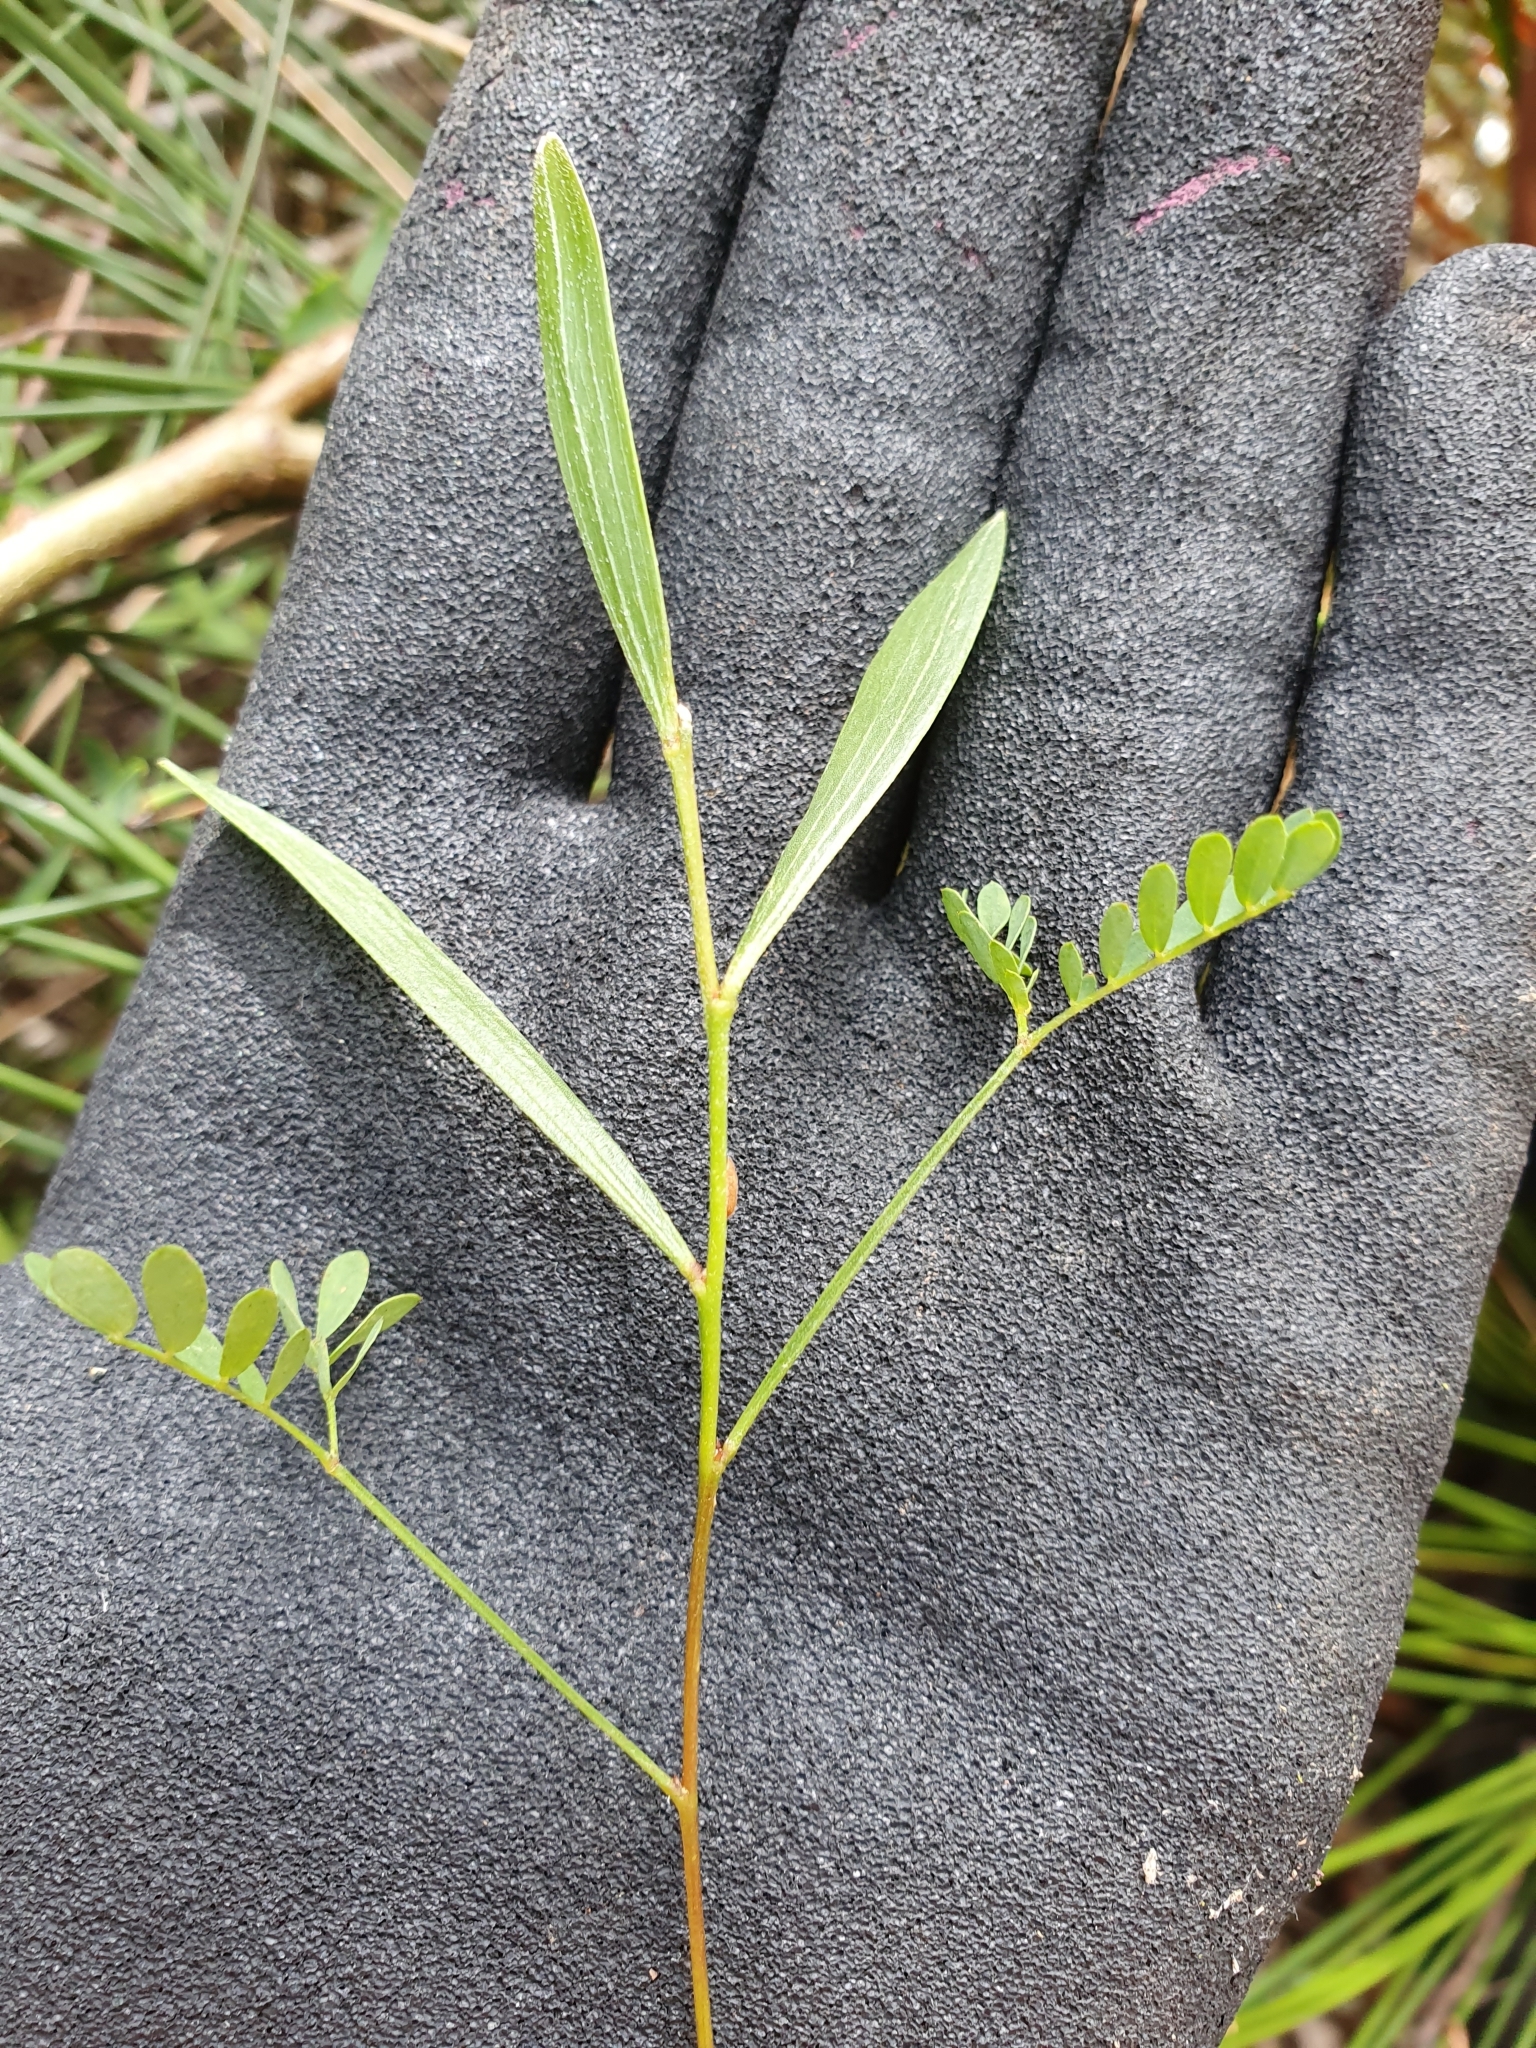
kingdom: Plantae
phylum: Tracheophyta
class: Magnoliopsida
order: Fabales
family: Fabaceae
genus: Acacia
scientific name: Acacia longifolia
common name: Sydney golden wattle
